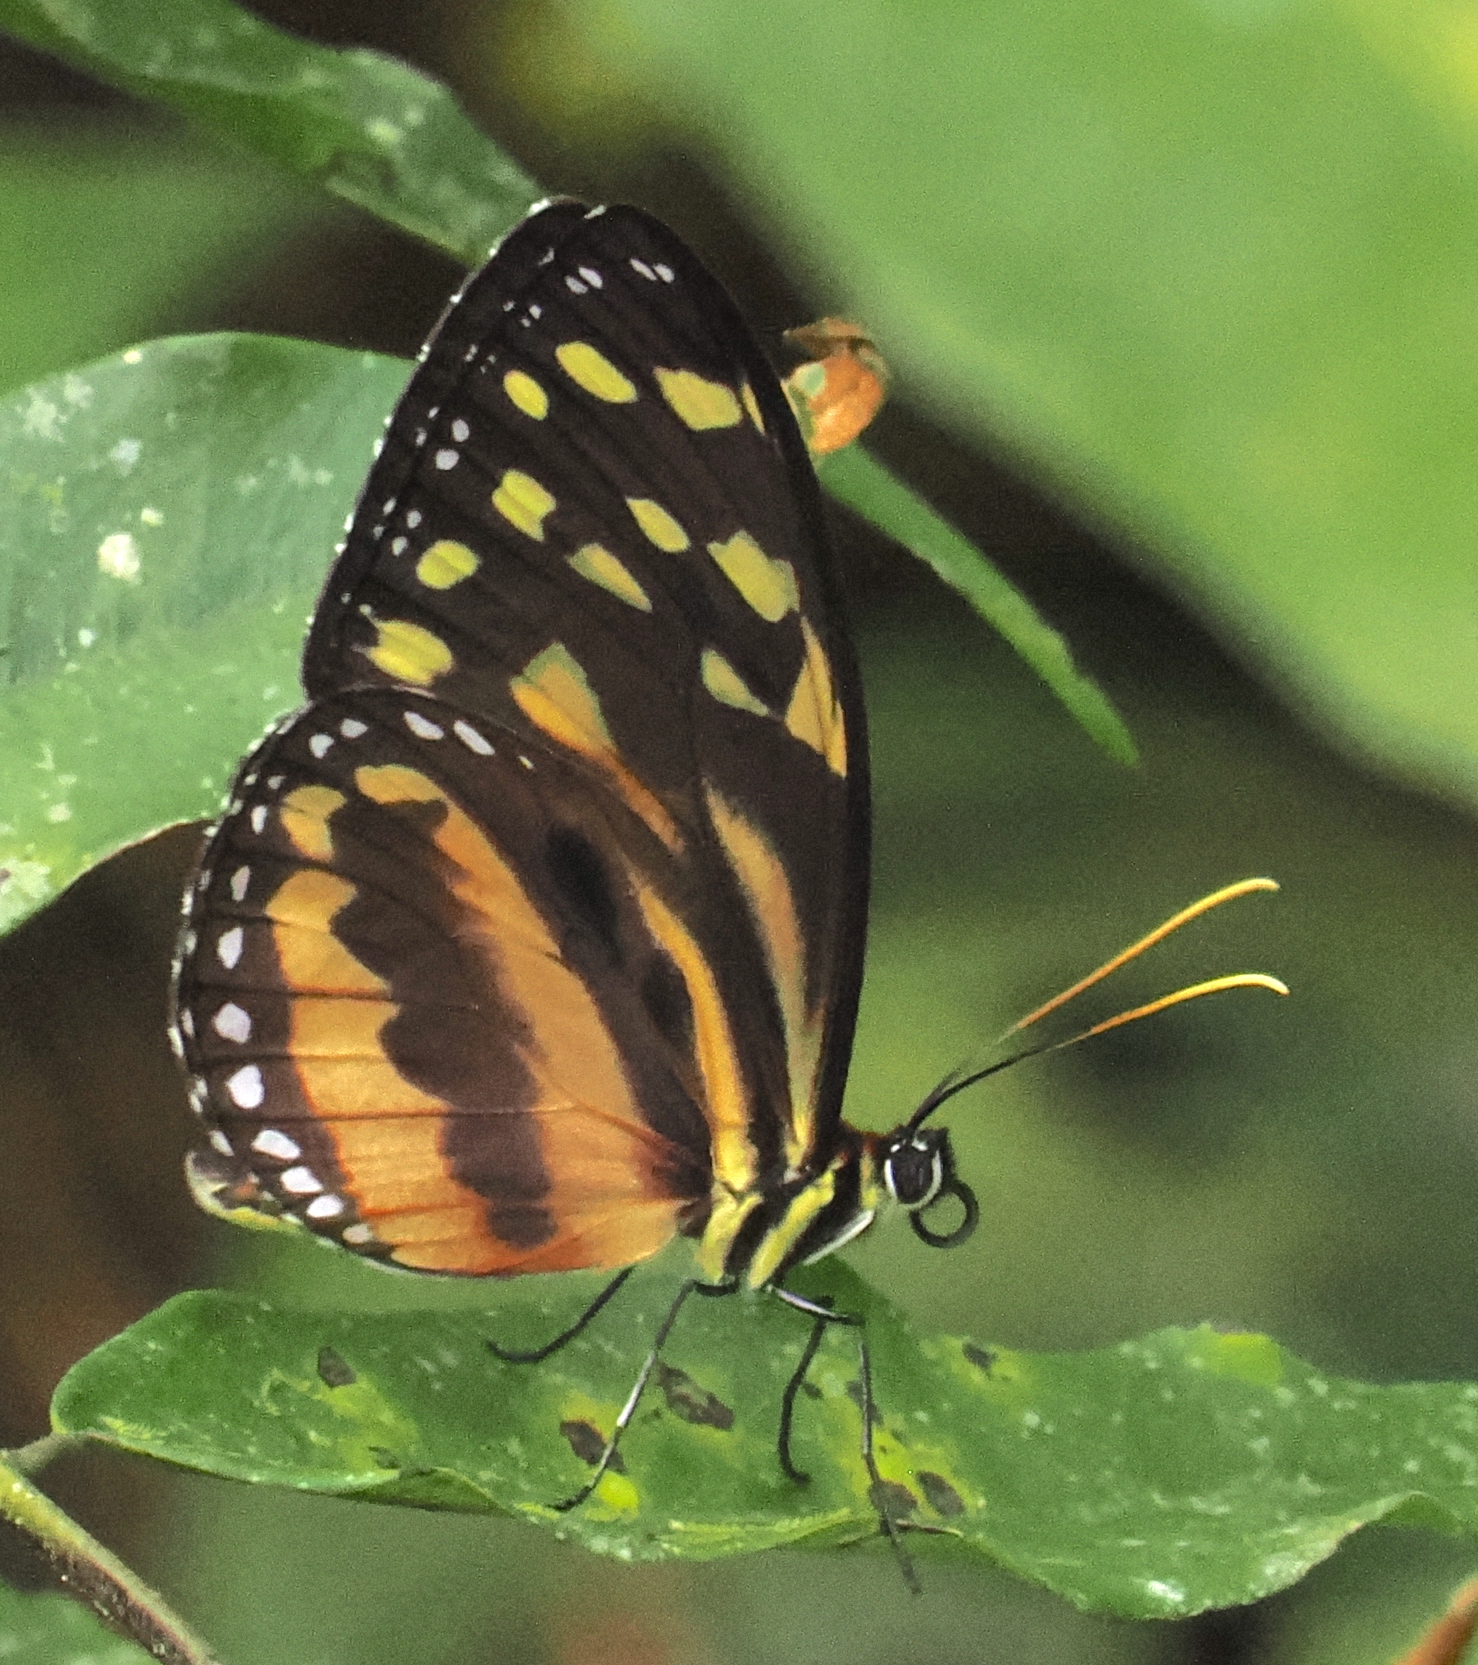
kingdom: Animalia
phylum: Arthropoda
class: Insecta
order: Lepidoptera
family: Nymphalidae
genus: Tithorea
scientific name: Tithorea harmonia
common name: Harmonia tigerwing
